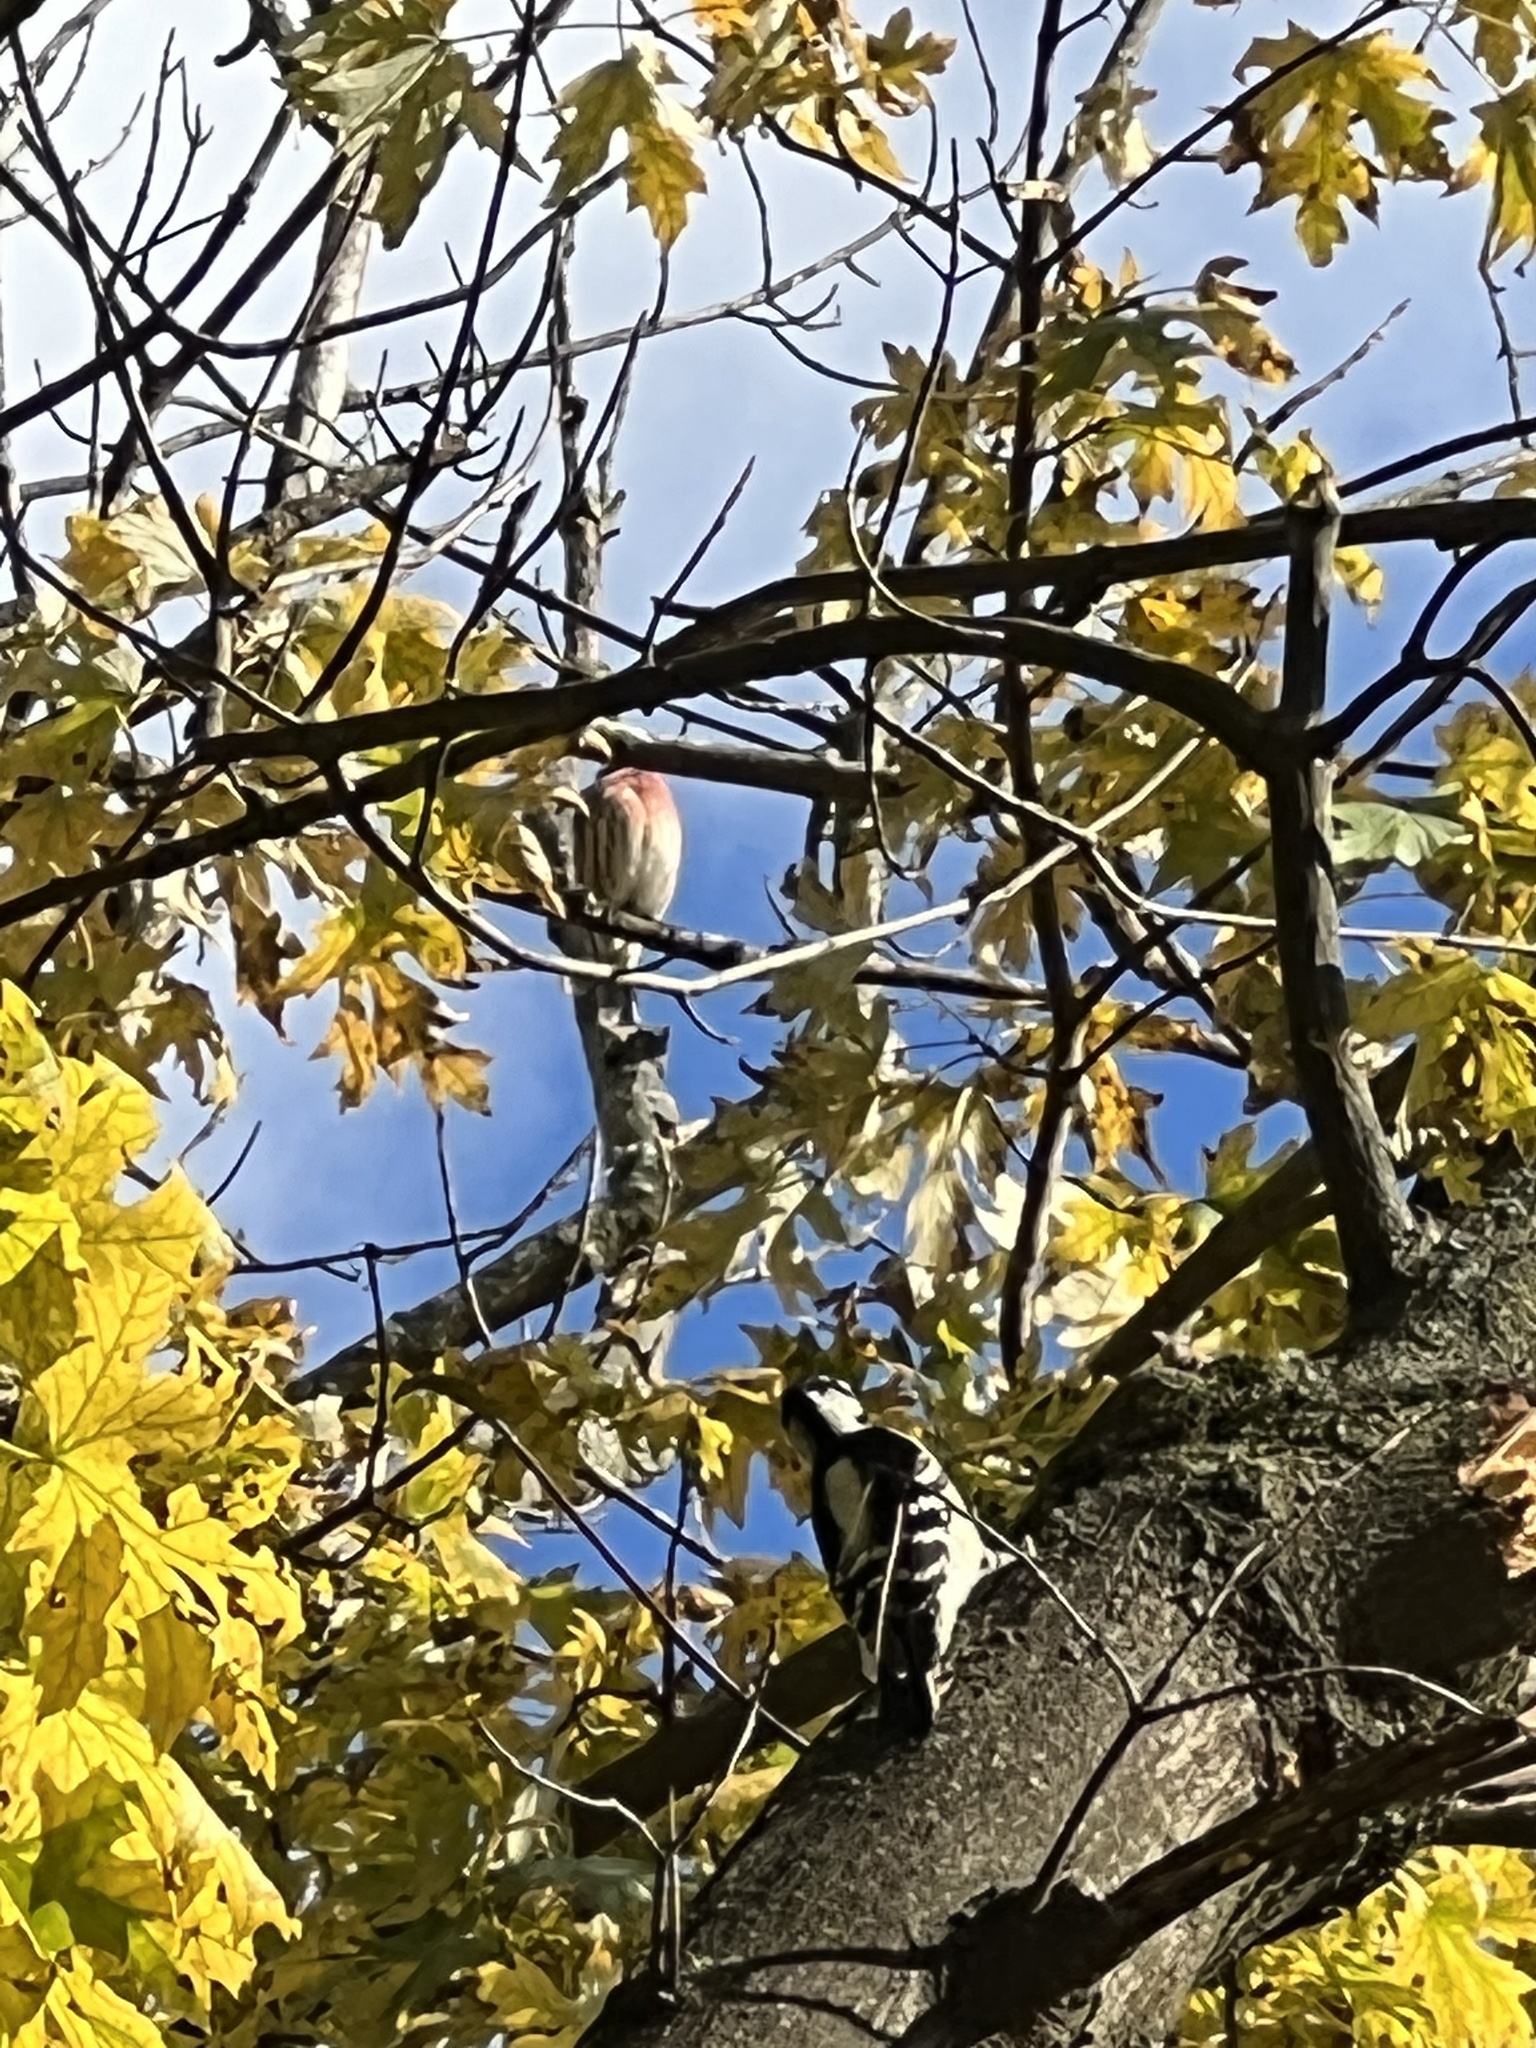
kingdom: Animalia
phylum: Chordata
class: Aves
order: Piciformes
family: Picidae
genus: Dryobates
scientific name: Dryobates pubescens
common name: Downy woodpecker
